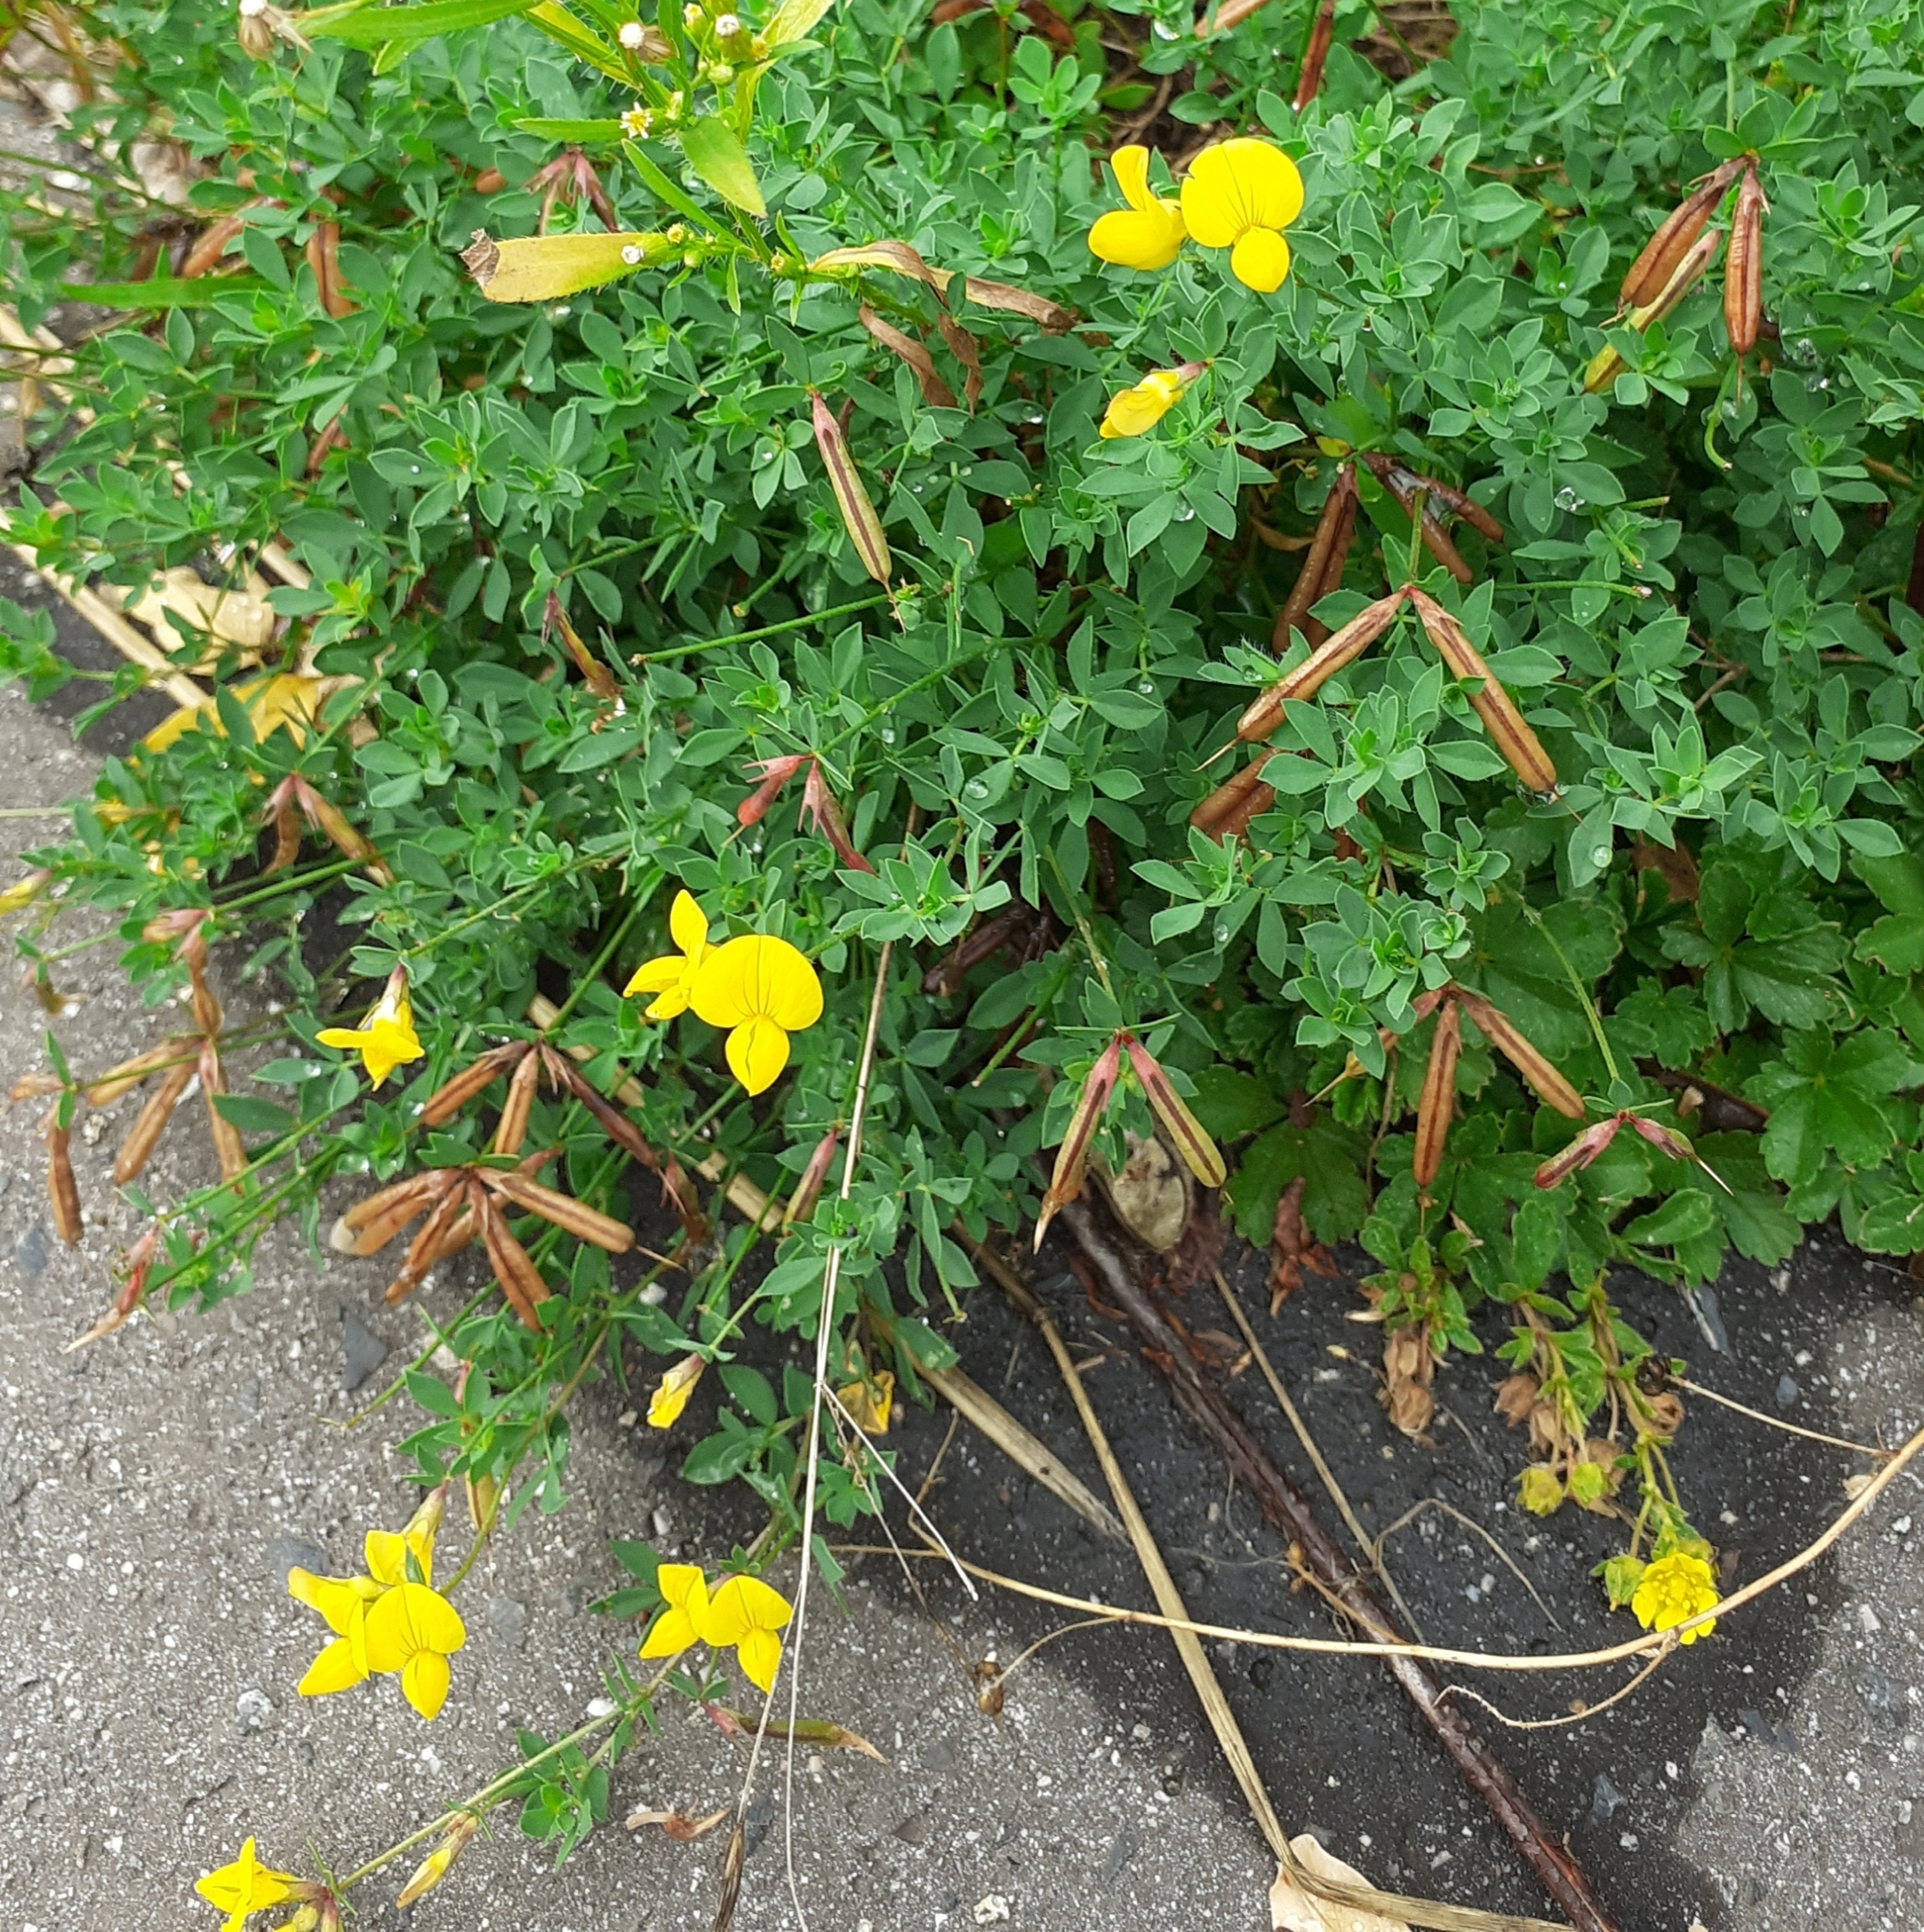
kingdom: Plantae
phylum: Tracheophyta
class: Magnoliopsida
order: Fabales
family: Fabaceae
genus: Lotus
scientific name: Lotus corniculatus
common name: Common bird's-foot-trefoil
